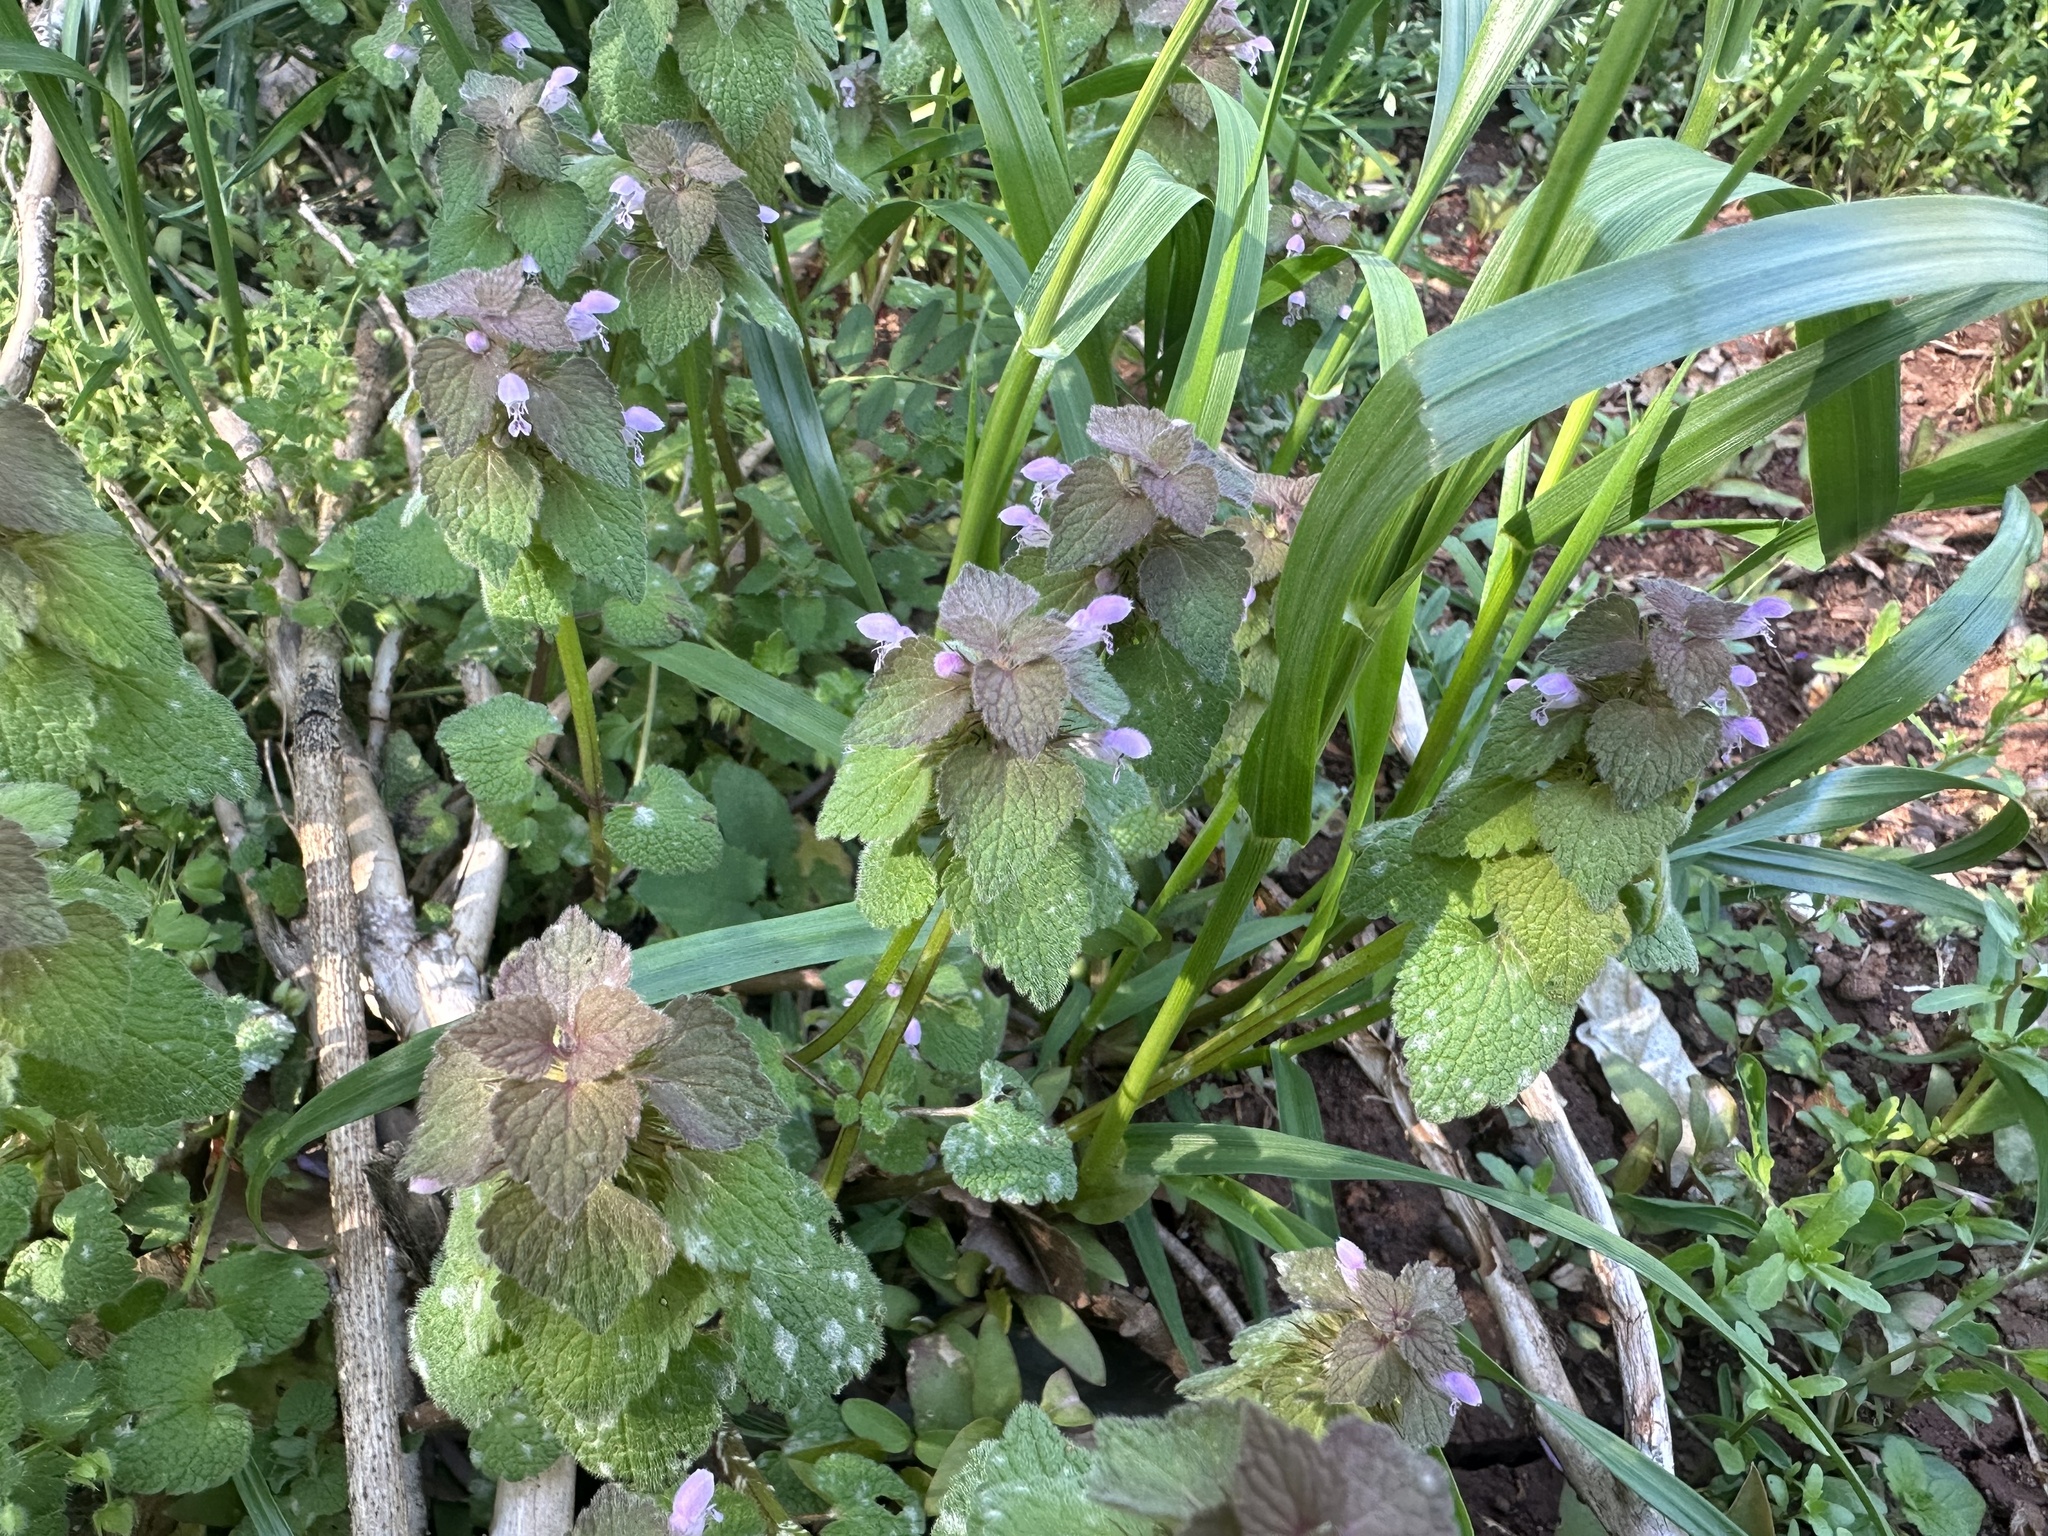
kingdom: Plantae
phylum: Tracheophyta
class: Magnoliopsida
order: Lamiales
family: Lamiaceae
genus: Lamium
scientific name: Lamium purpureum
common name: Red dead-nettle
